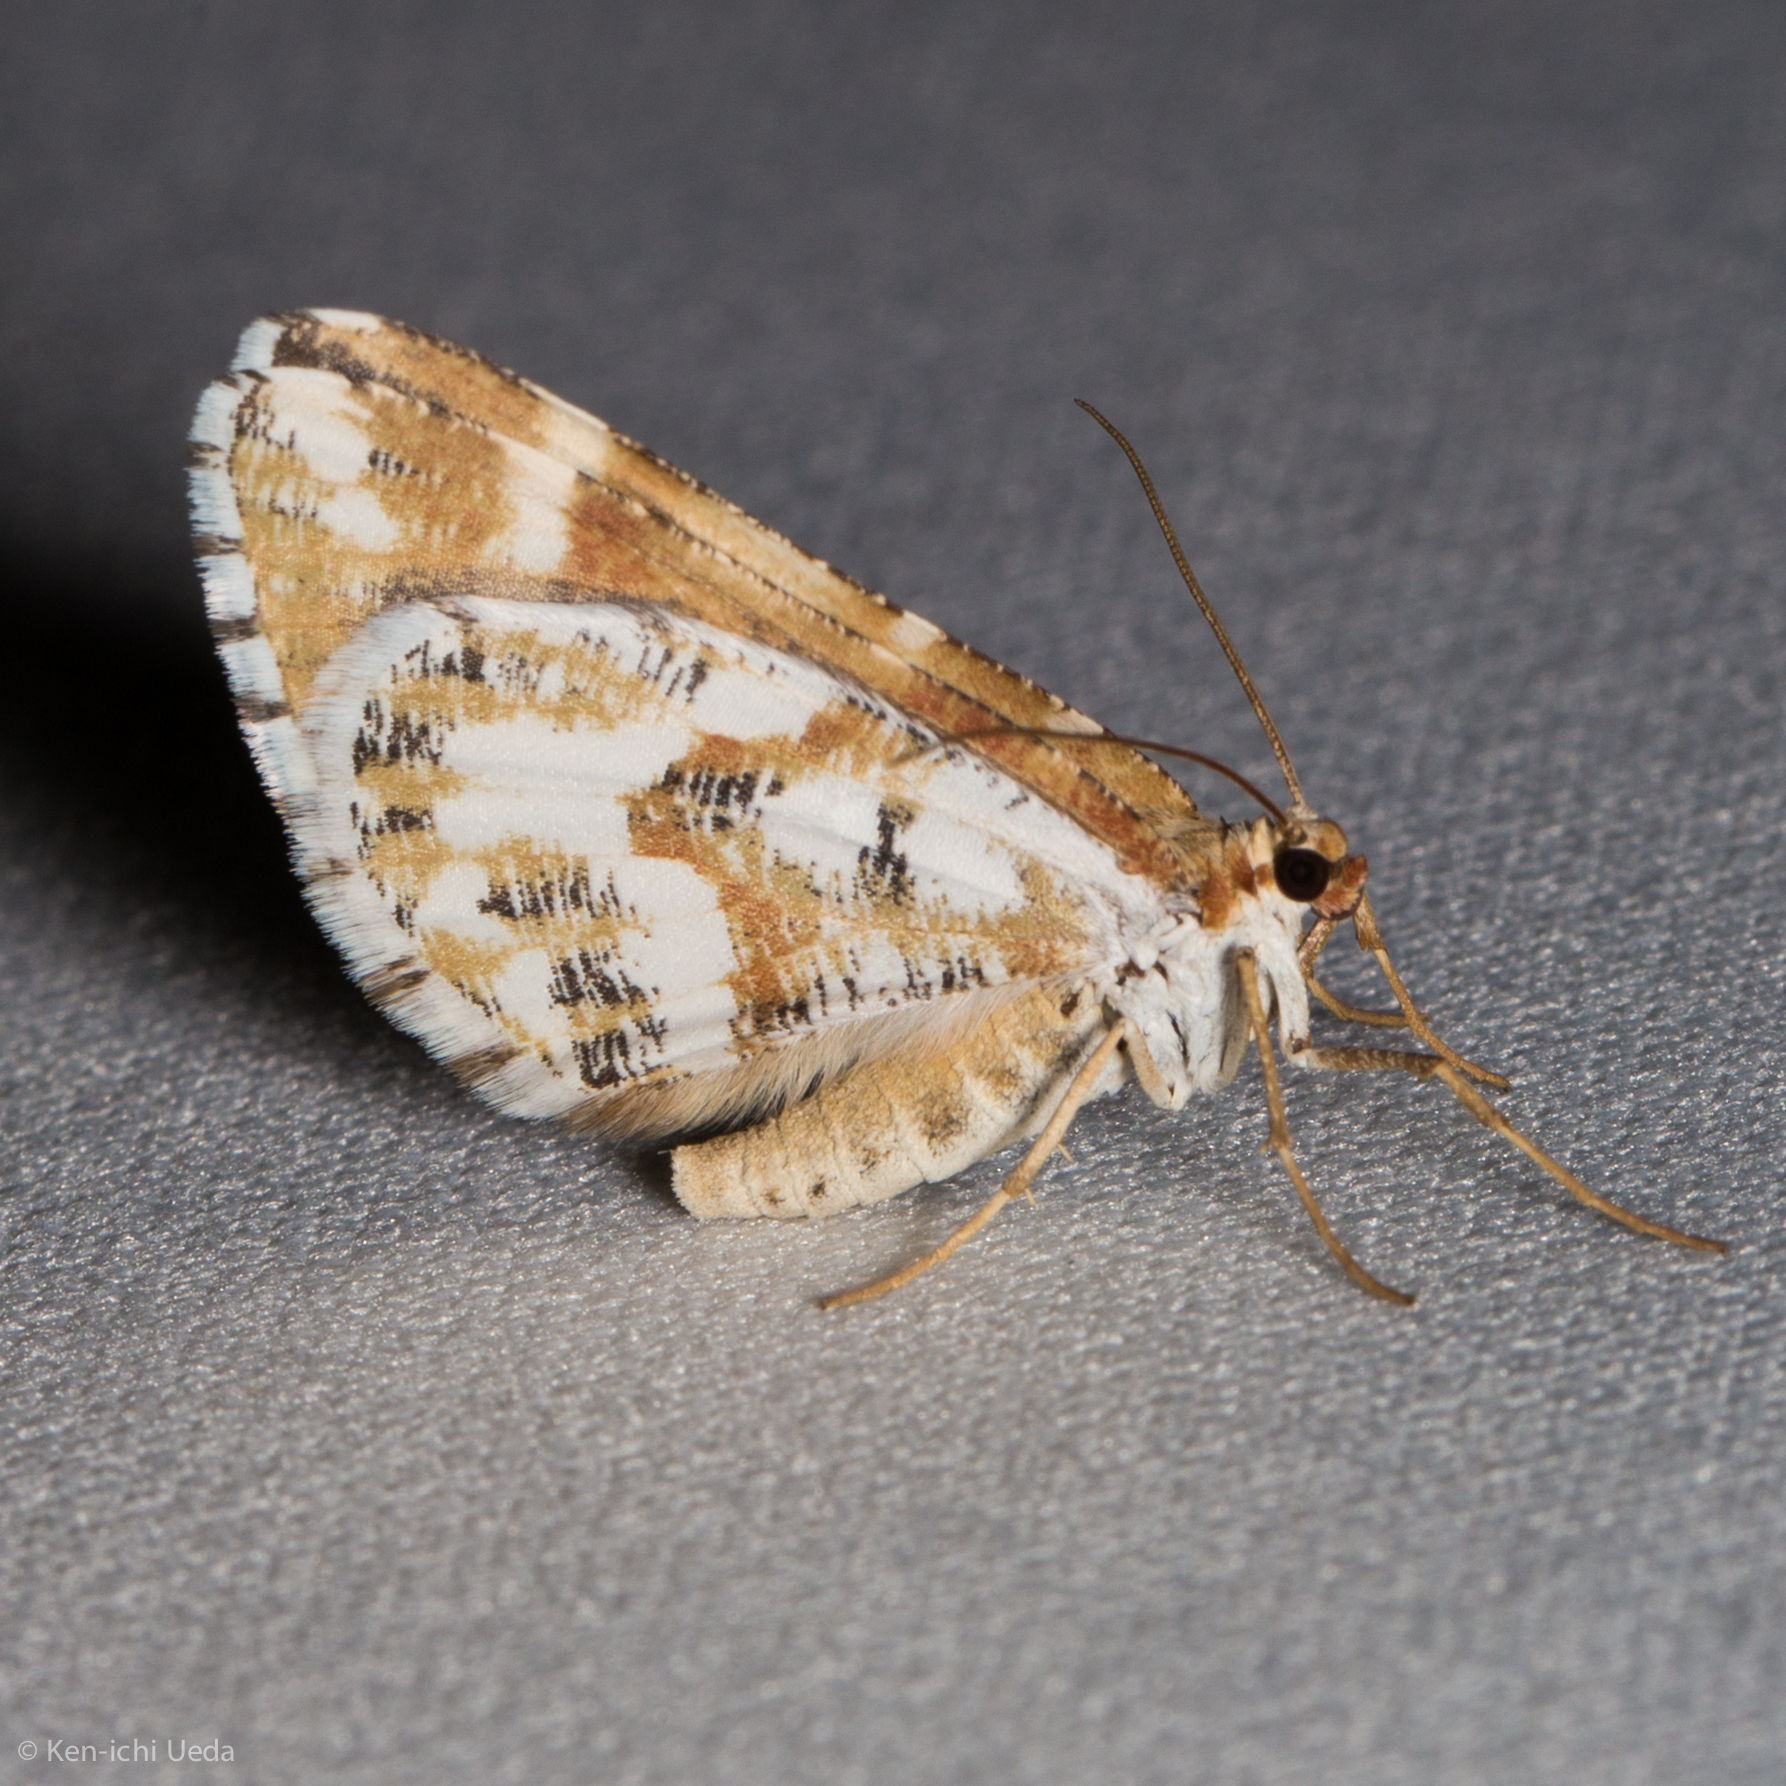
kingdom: Animalia
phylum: Arthropoda
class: Insecta
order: Lepidoptera
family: Geometridae
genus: Stamnodes
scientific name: Stamnodes marmorata
